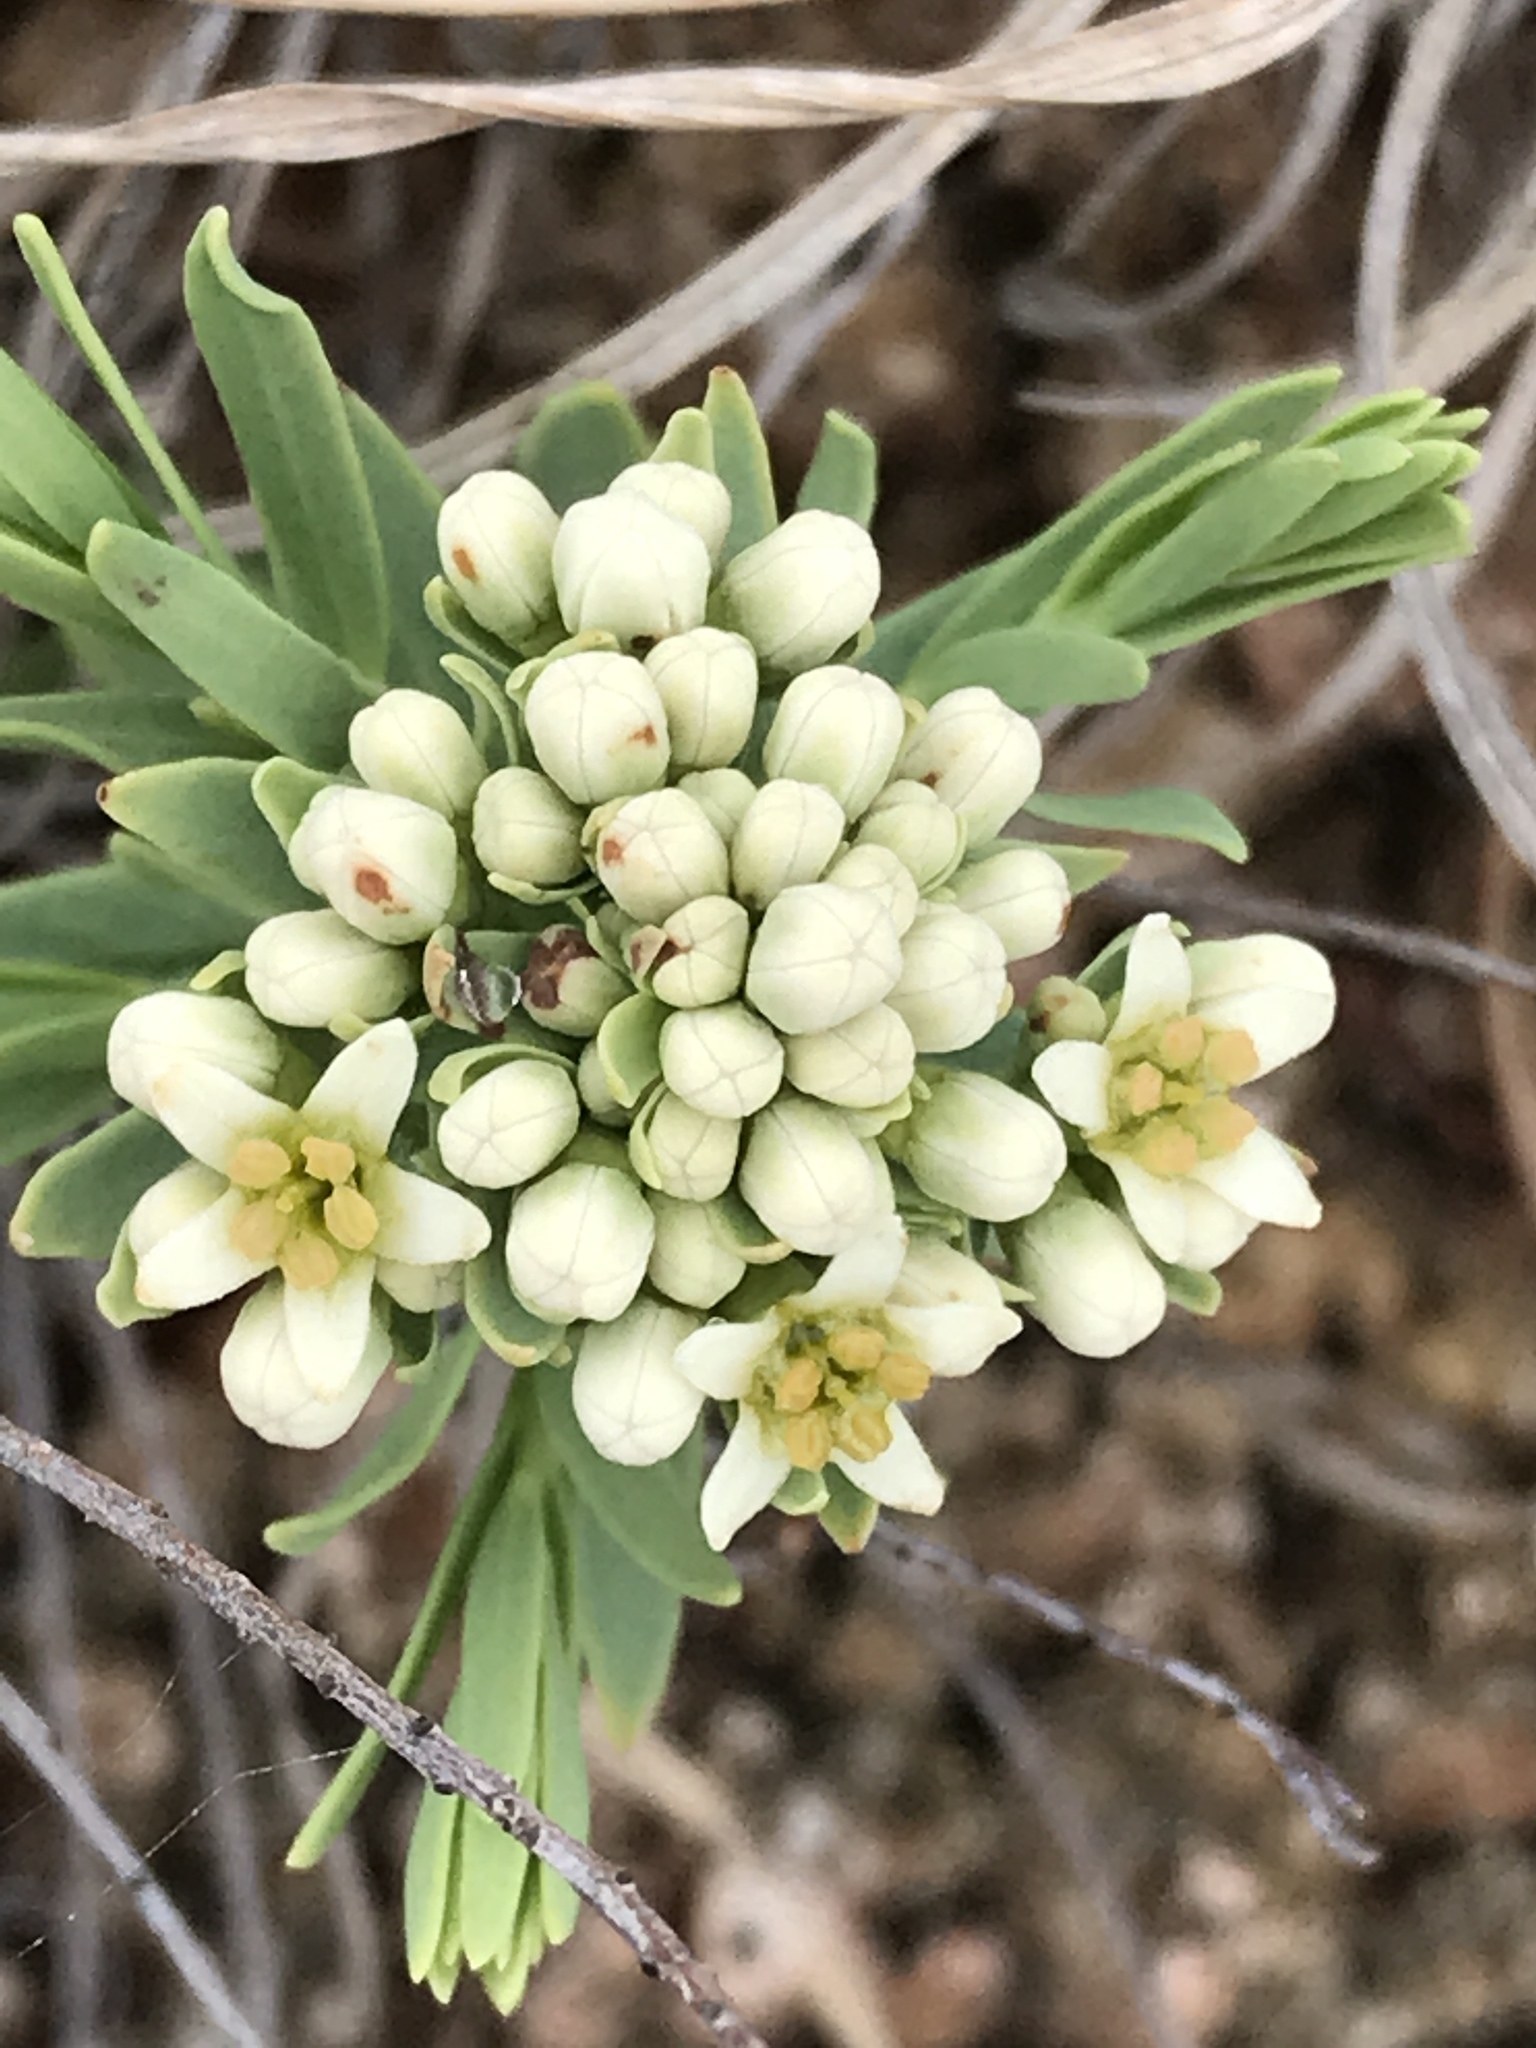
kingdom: Plantae
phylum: Tracheophyta
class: Magnoliopsida
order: Santalales
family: Comandraceae
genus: Comandra
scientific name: Comandra umbellata
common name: Bastard toadflax
